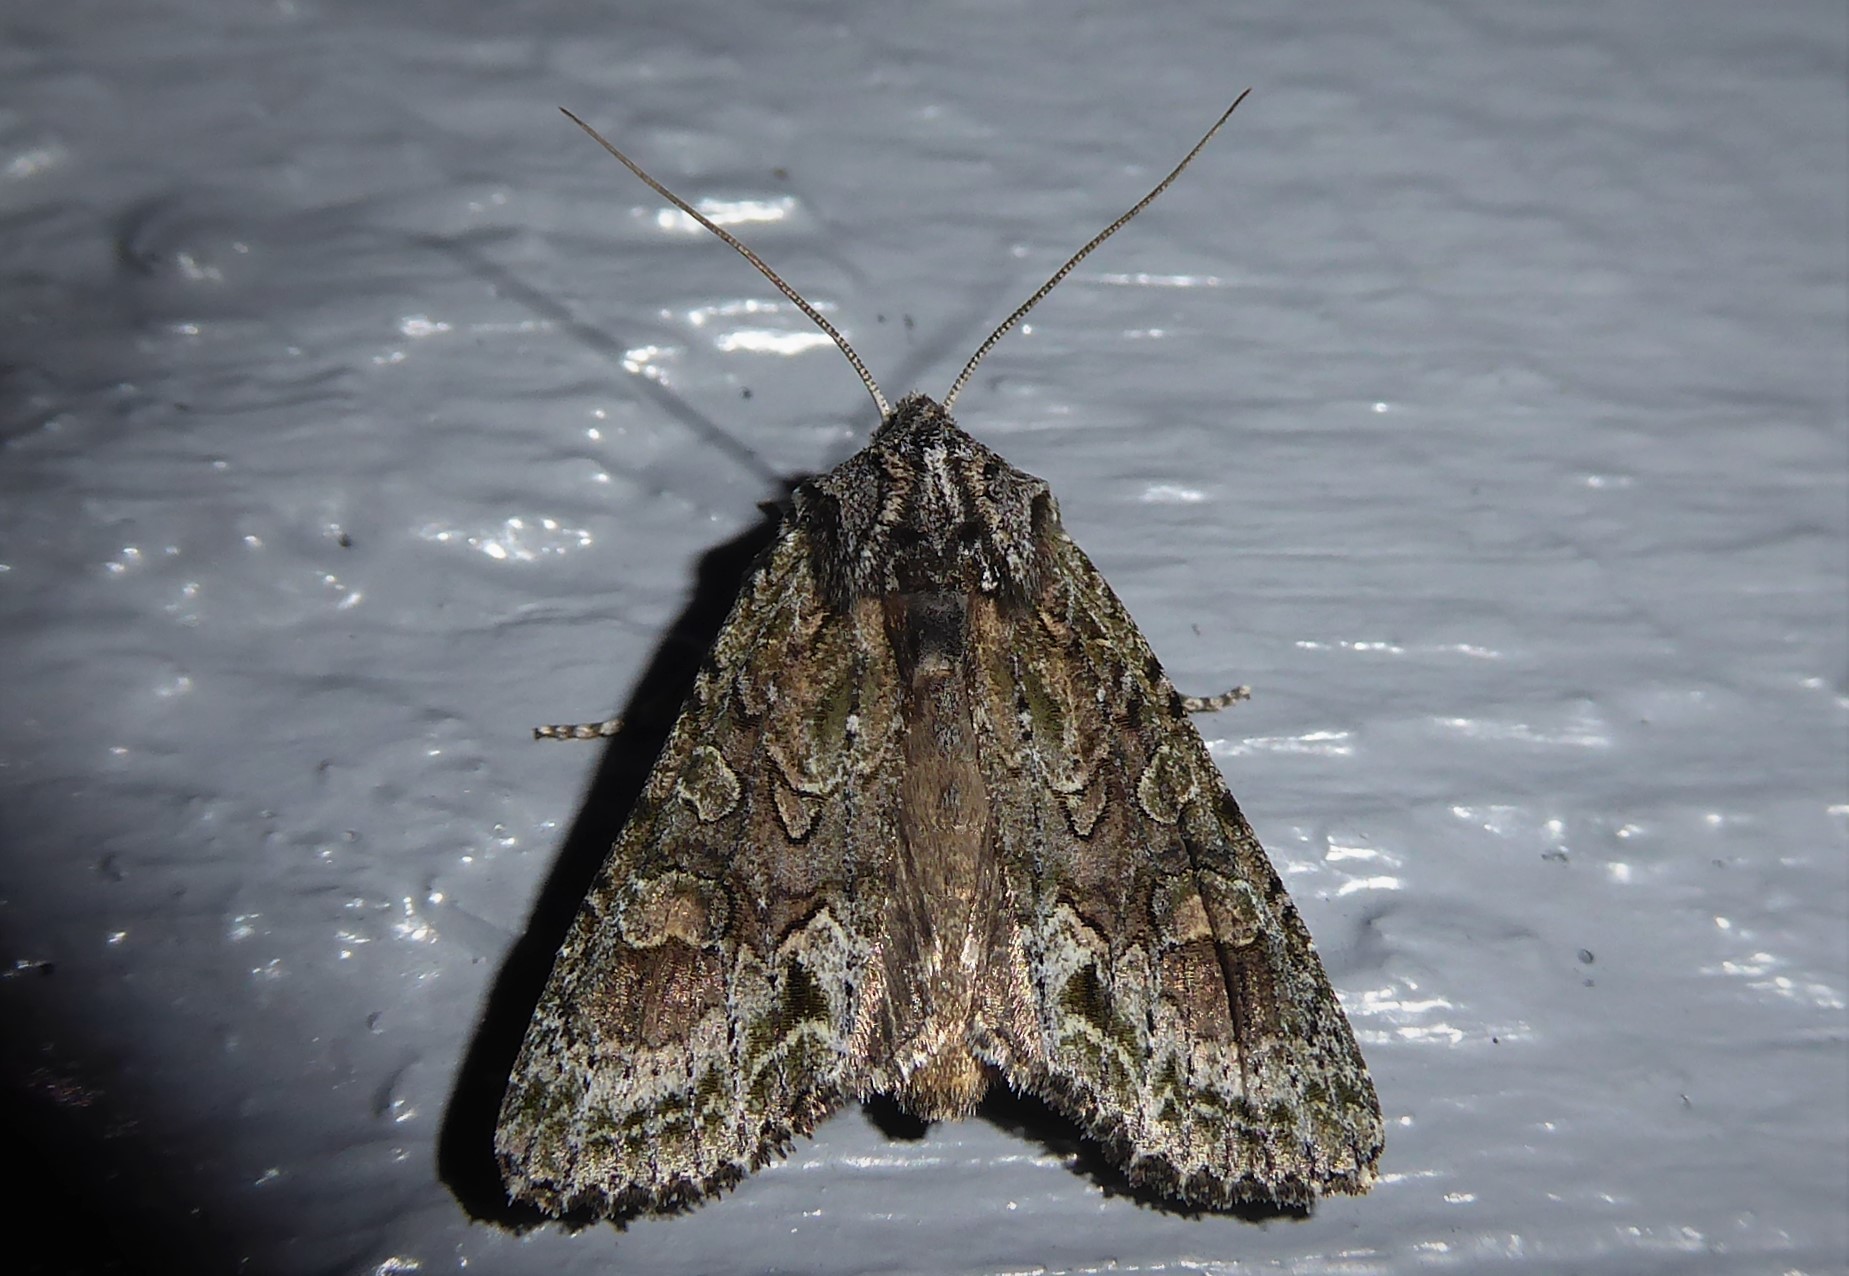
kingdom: Animalia
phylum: Arthropoda
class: Insecta
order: Lepidoptera
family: Noctuidae
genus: Ichneutica
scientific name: Ichneutica mutans
